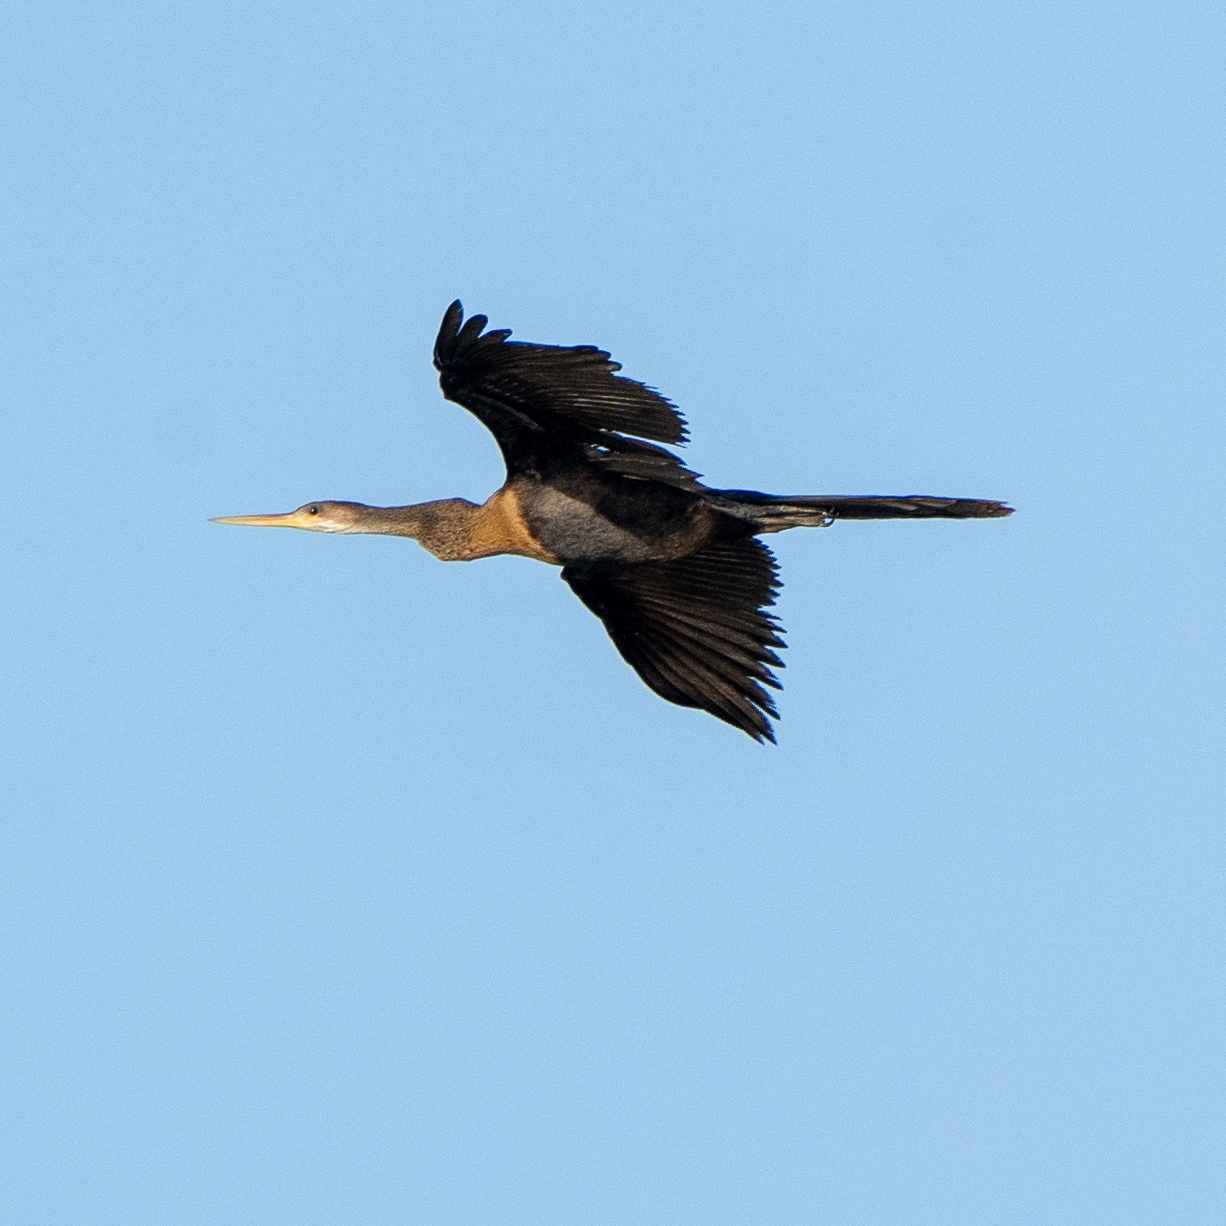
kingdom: Animalia
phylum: Chordata
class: Aves
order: Suliformes
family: Anhingidae
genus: Anhinga
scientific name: Anhinga anhinga
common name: Anhinga
